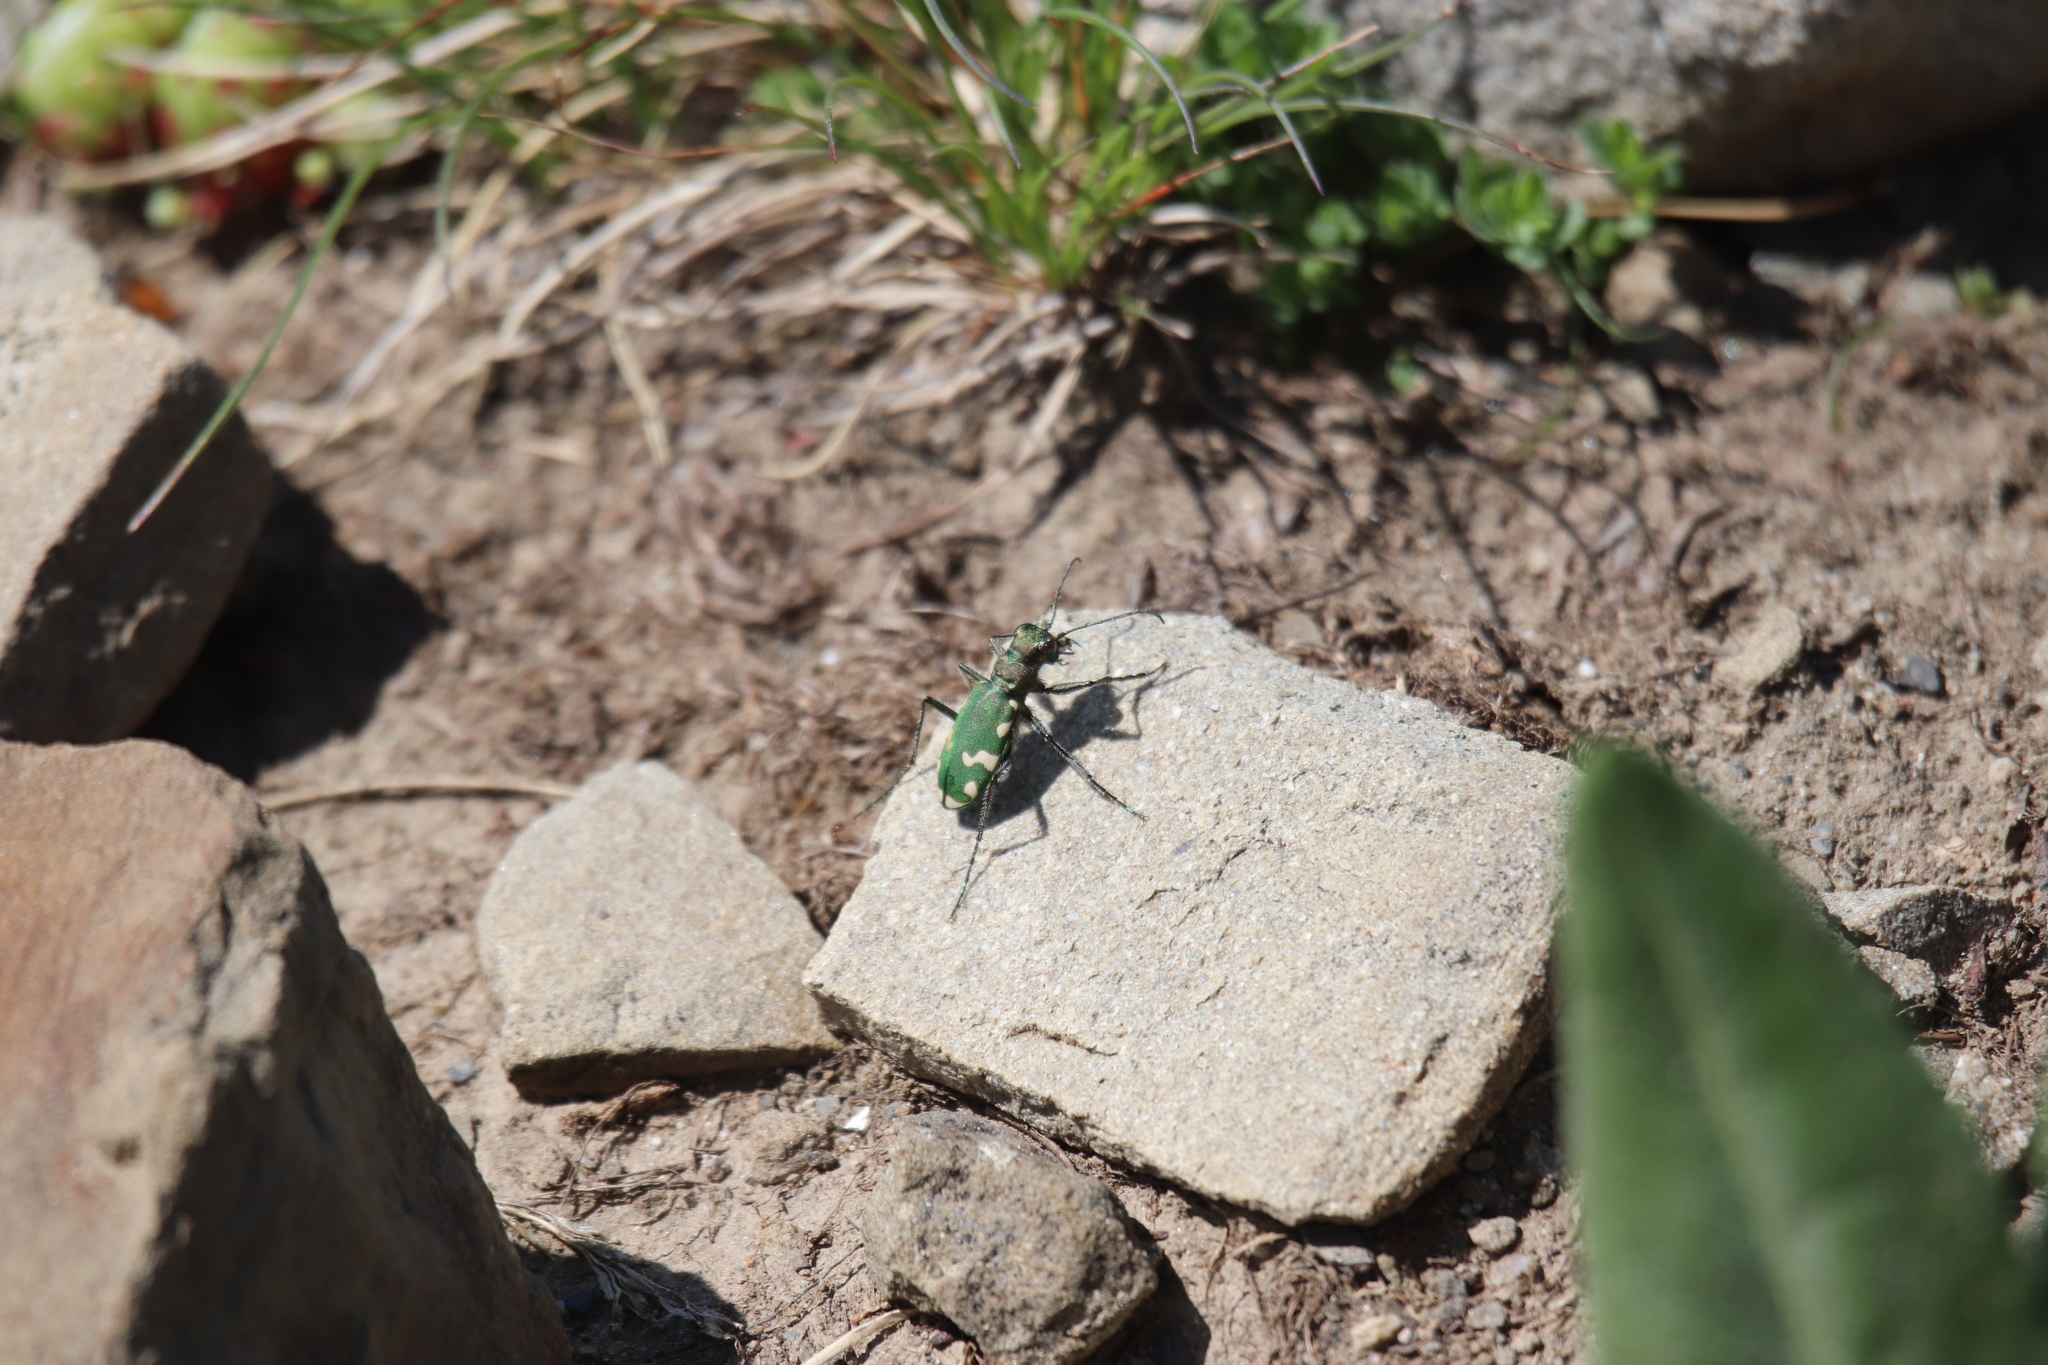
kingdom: Animalia
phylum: Arthropoda
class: Insecta
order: Coleoptera
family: Carabidae
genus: Cicindela
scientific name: Cicindela gallica
